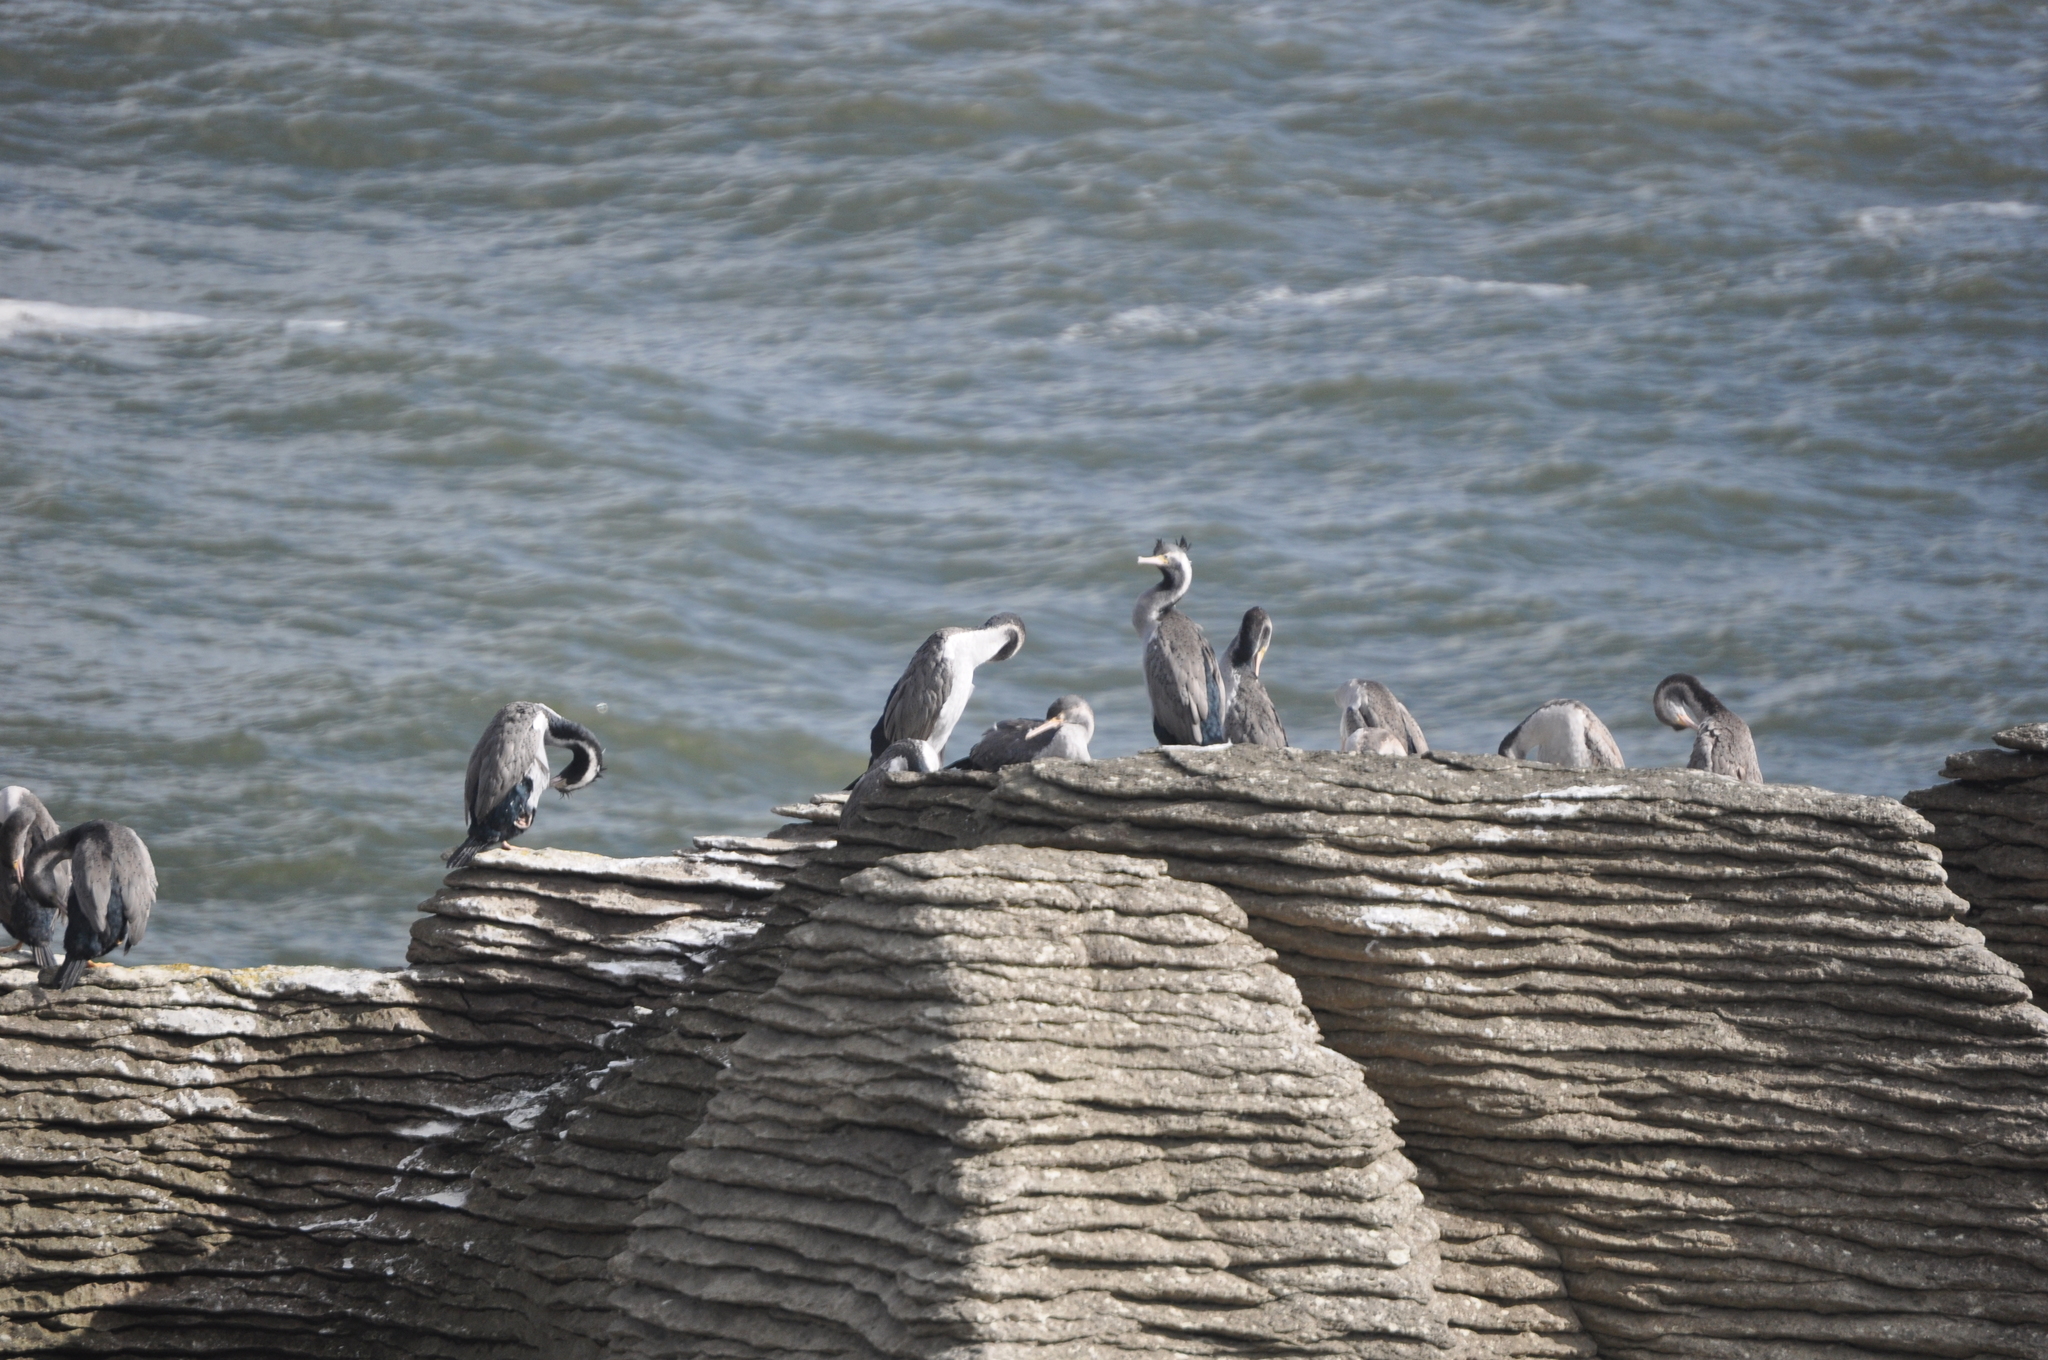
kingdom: Animalia
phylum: Chordata
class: Aves
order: Suliformes
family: Phalacrocoracidae
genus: Phalacrocorax
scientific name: Phalacrocorax punctatus
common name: Spotted shag
